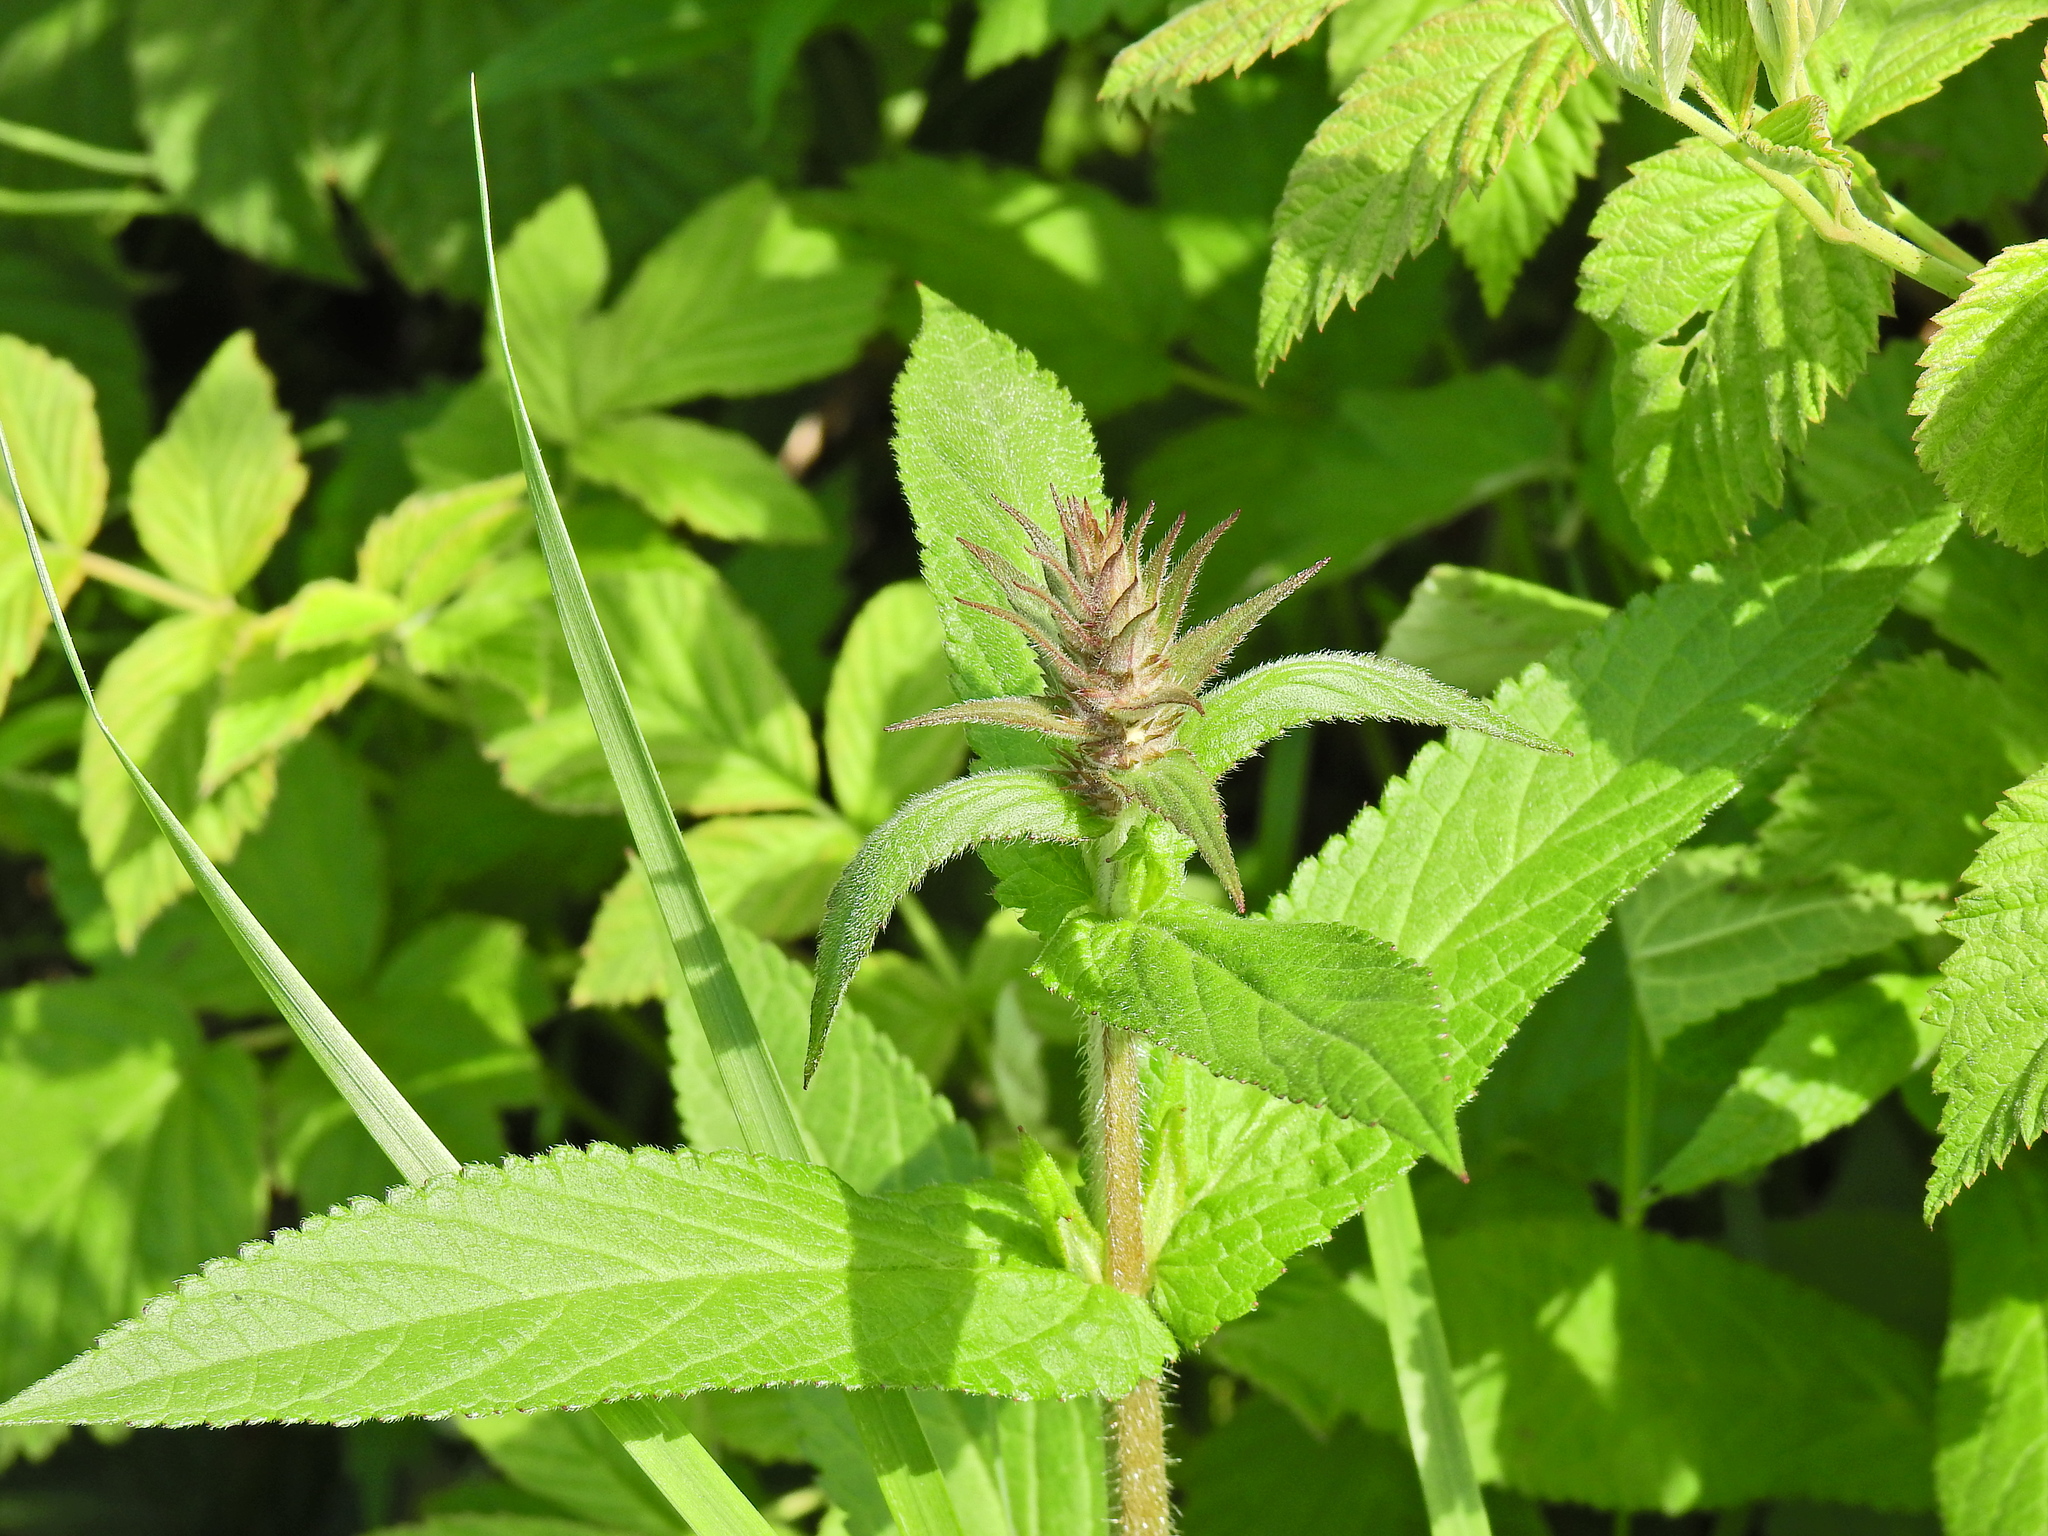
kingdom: Plantae
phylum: Tracheophyta
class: Magnoliopsida
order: Lamiales
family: Lamiaceae
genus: Stachys
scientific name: Stachys palustris
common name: Marsh woundwort
